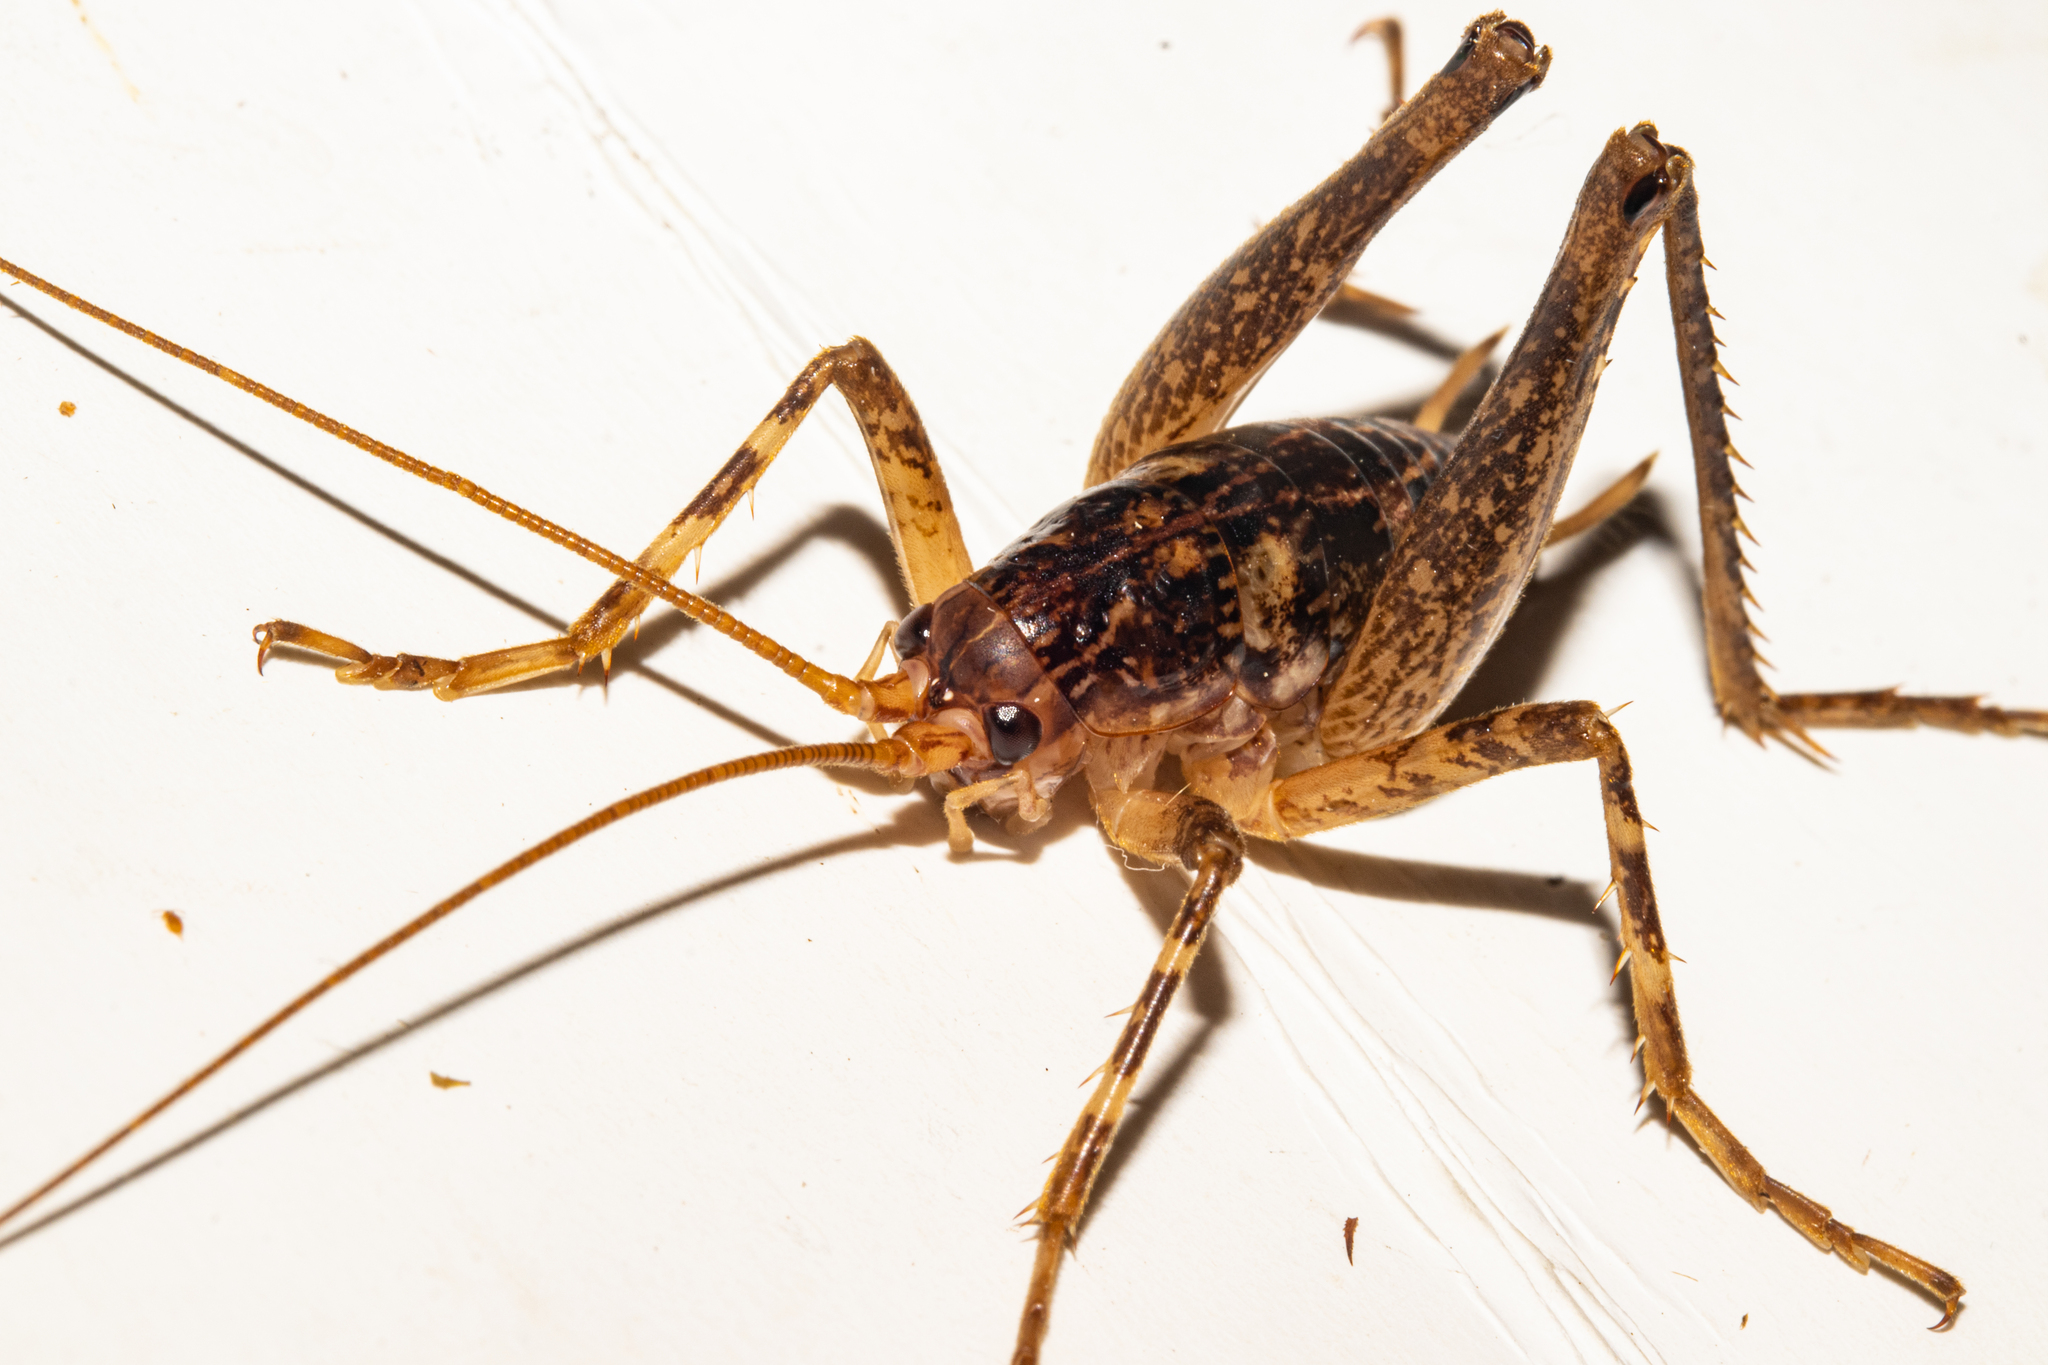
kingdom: Animalia
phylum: Arthropoda
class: Insecta
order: Orthoptera
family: Rhaphidophoridae
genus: Notoplectron
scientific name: Notoplectron brewsterensis
